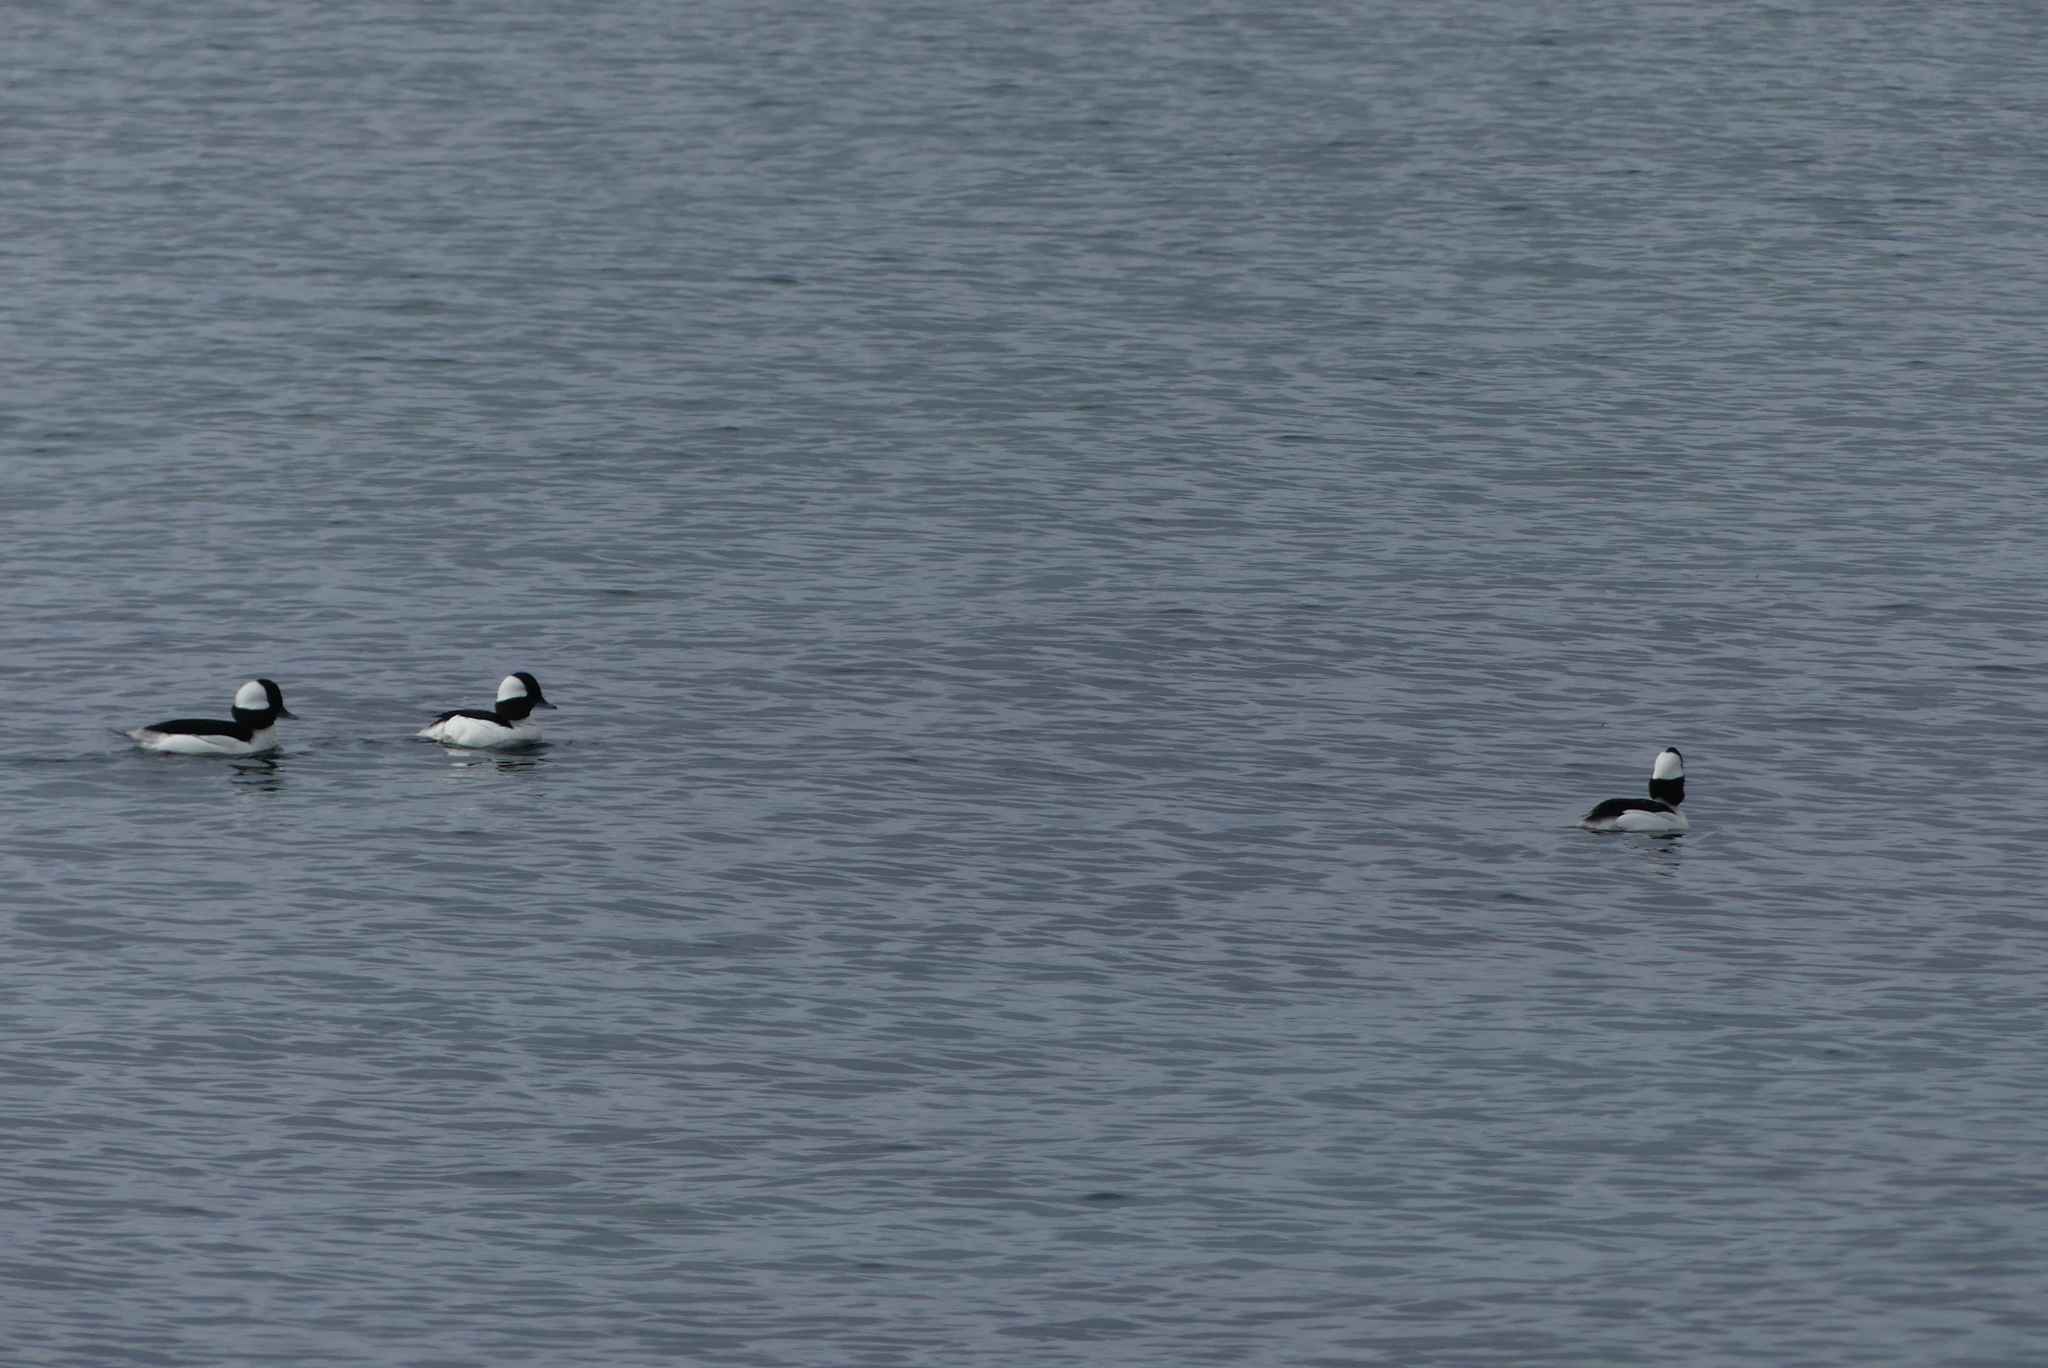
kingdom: Animalia
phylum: Chordata
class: Aves
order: Anseriformes
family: Anatidae
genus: Bucephala
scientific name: Bucephala albeola
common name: Bufflehead
